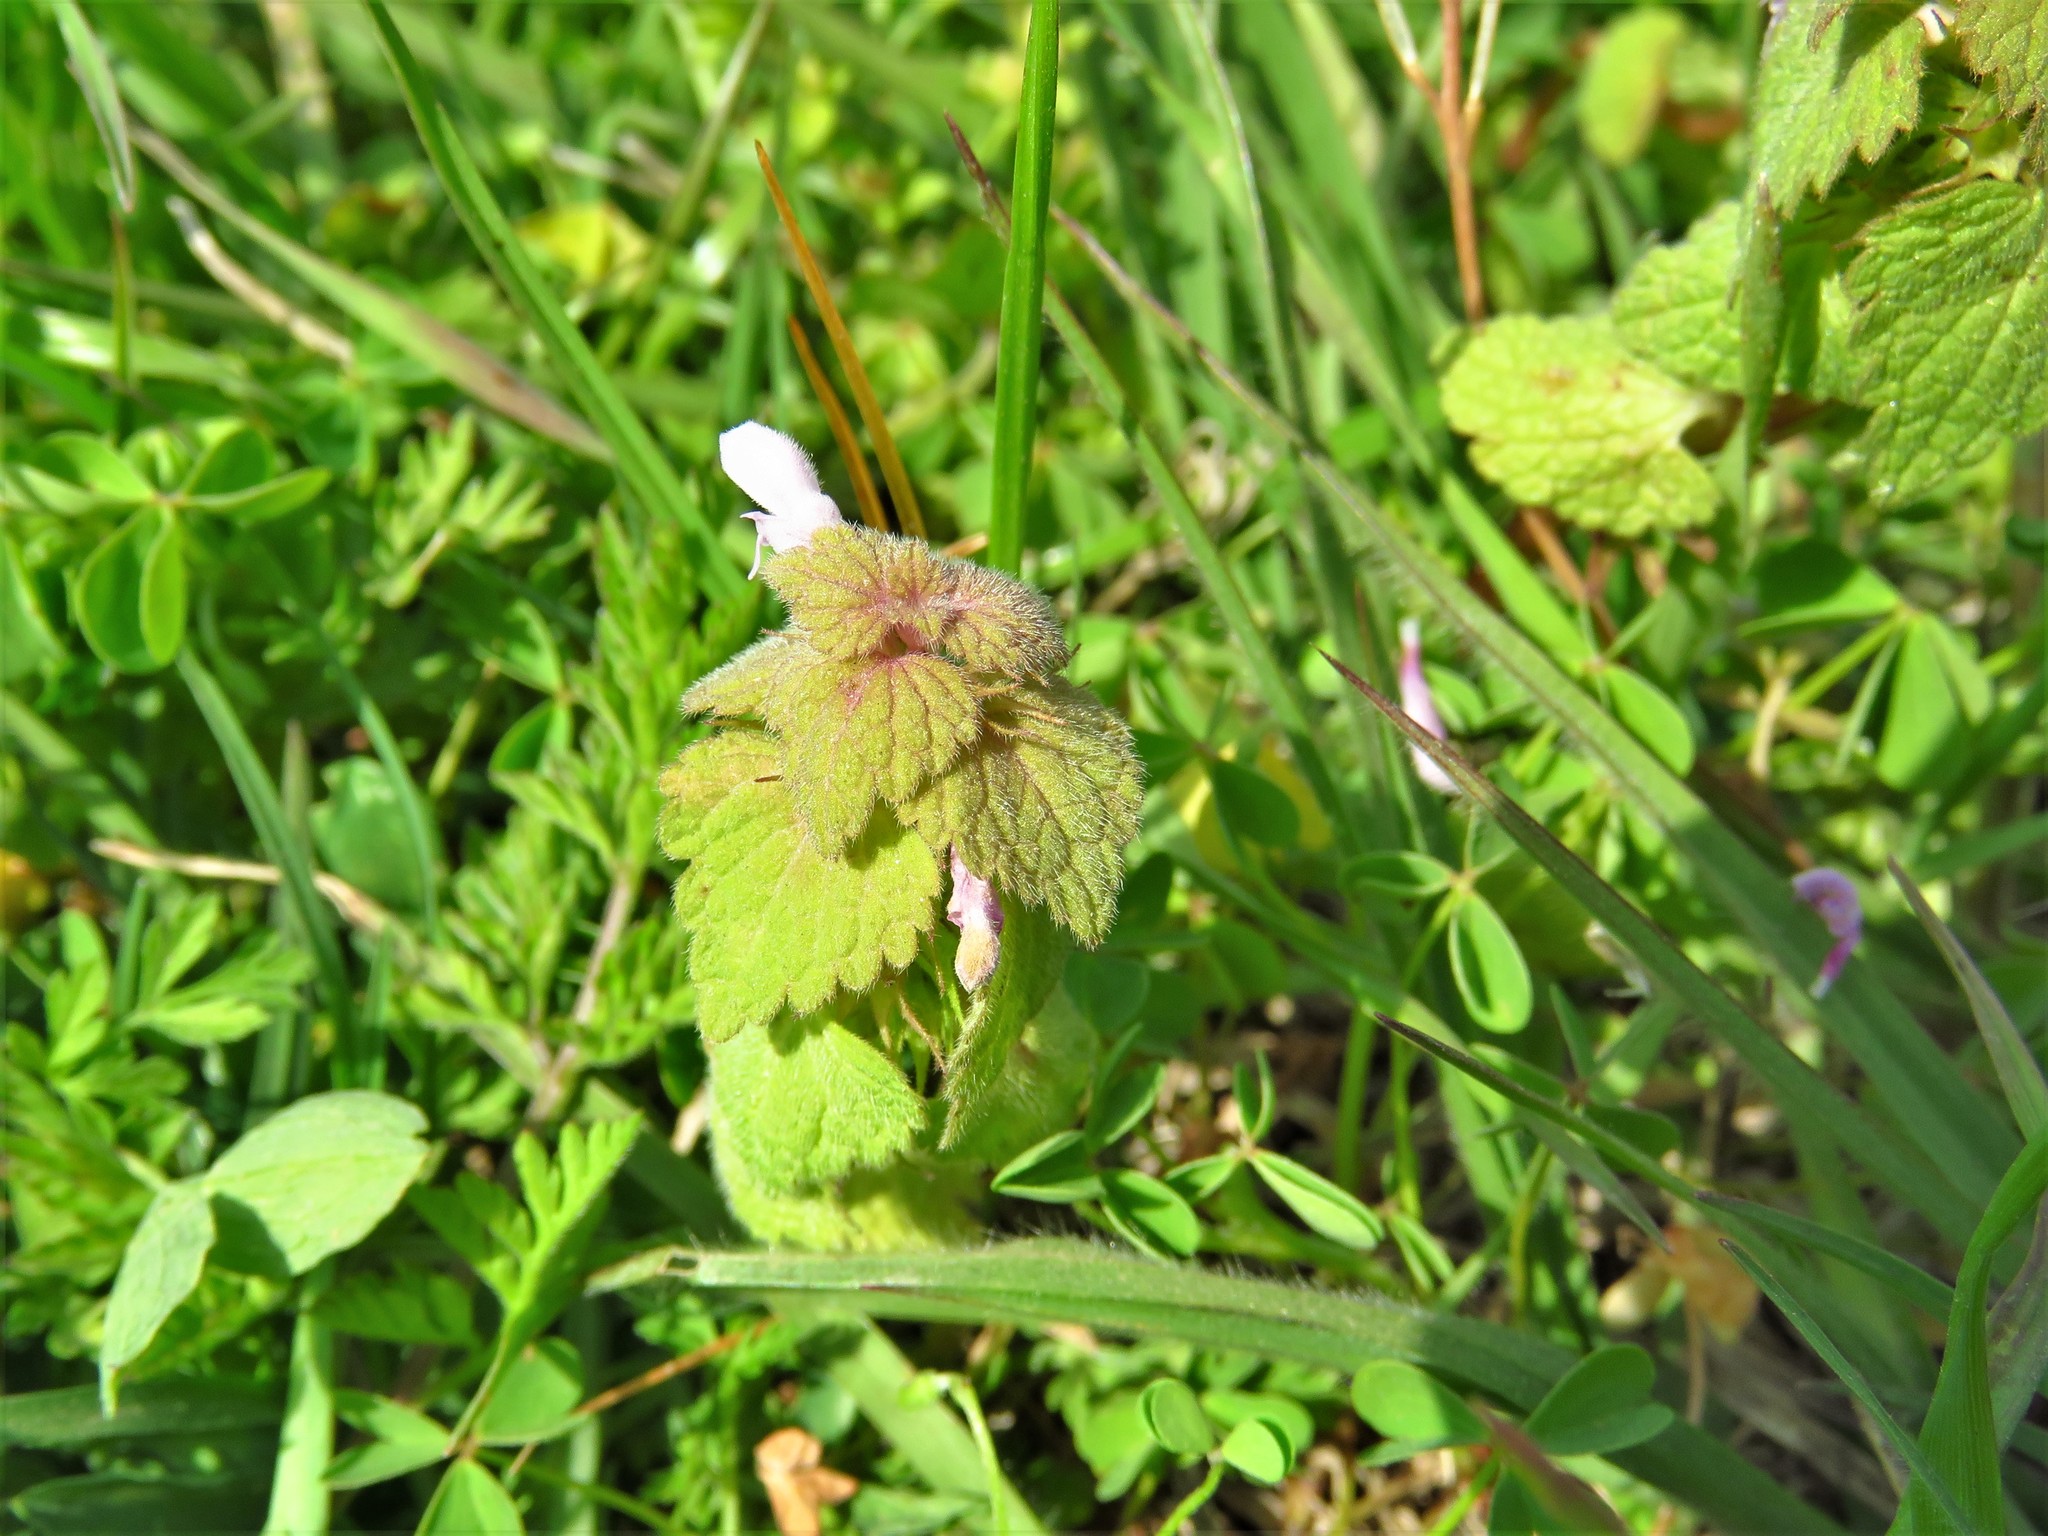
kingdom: Plantae
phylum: Tracheophyta
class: Magnoliopsida
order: Lamiales
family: Lamiaceae
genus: Lamium
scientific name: Lamium purpureum
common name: Red dead-nettle
